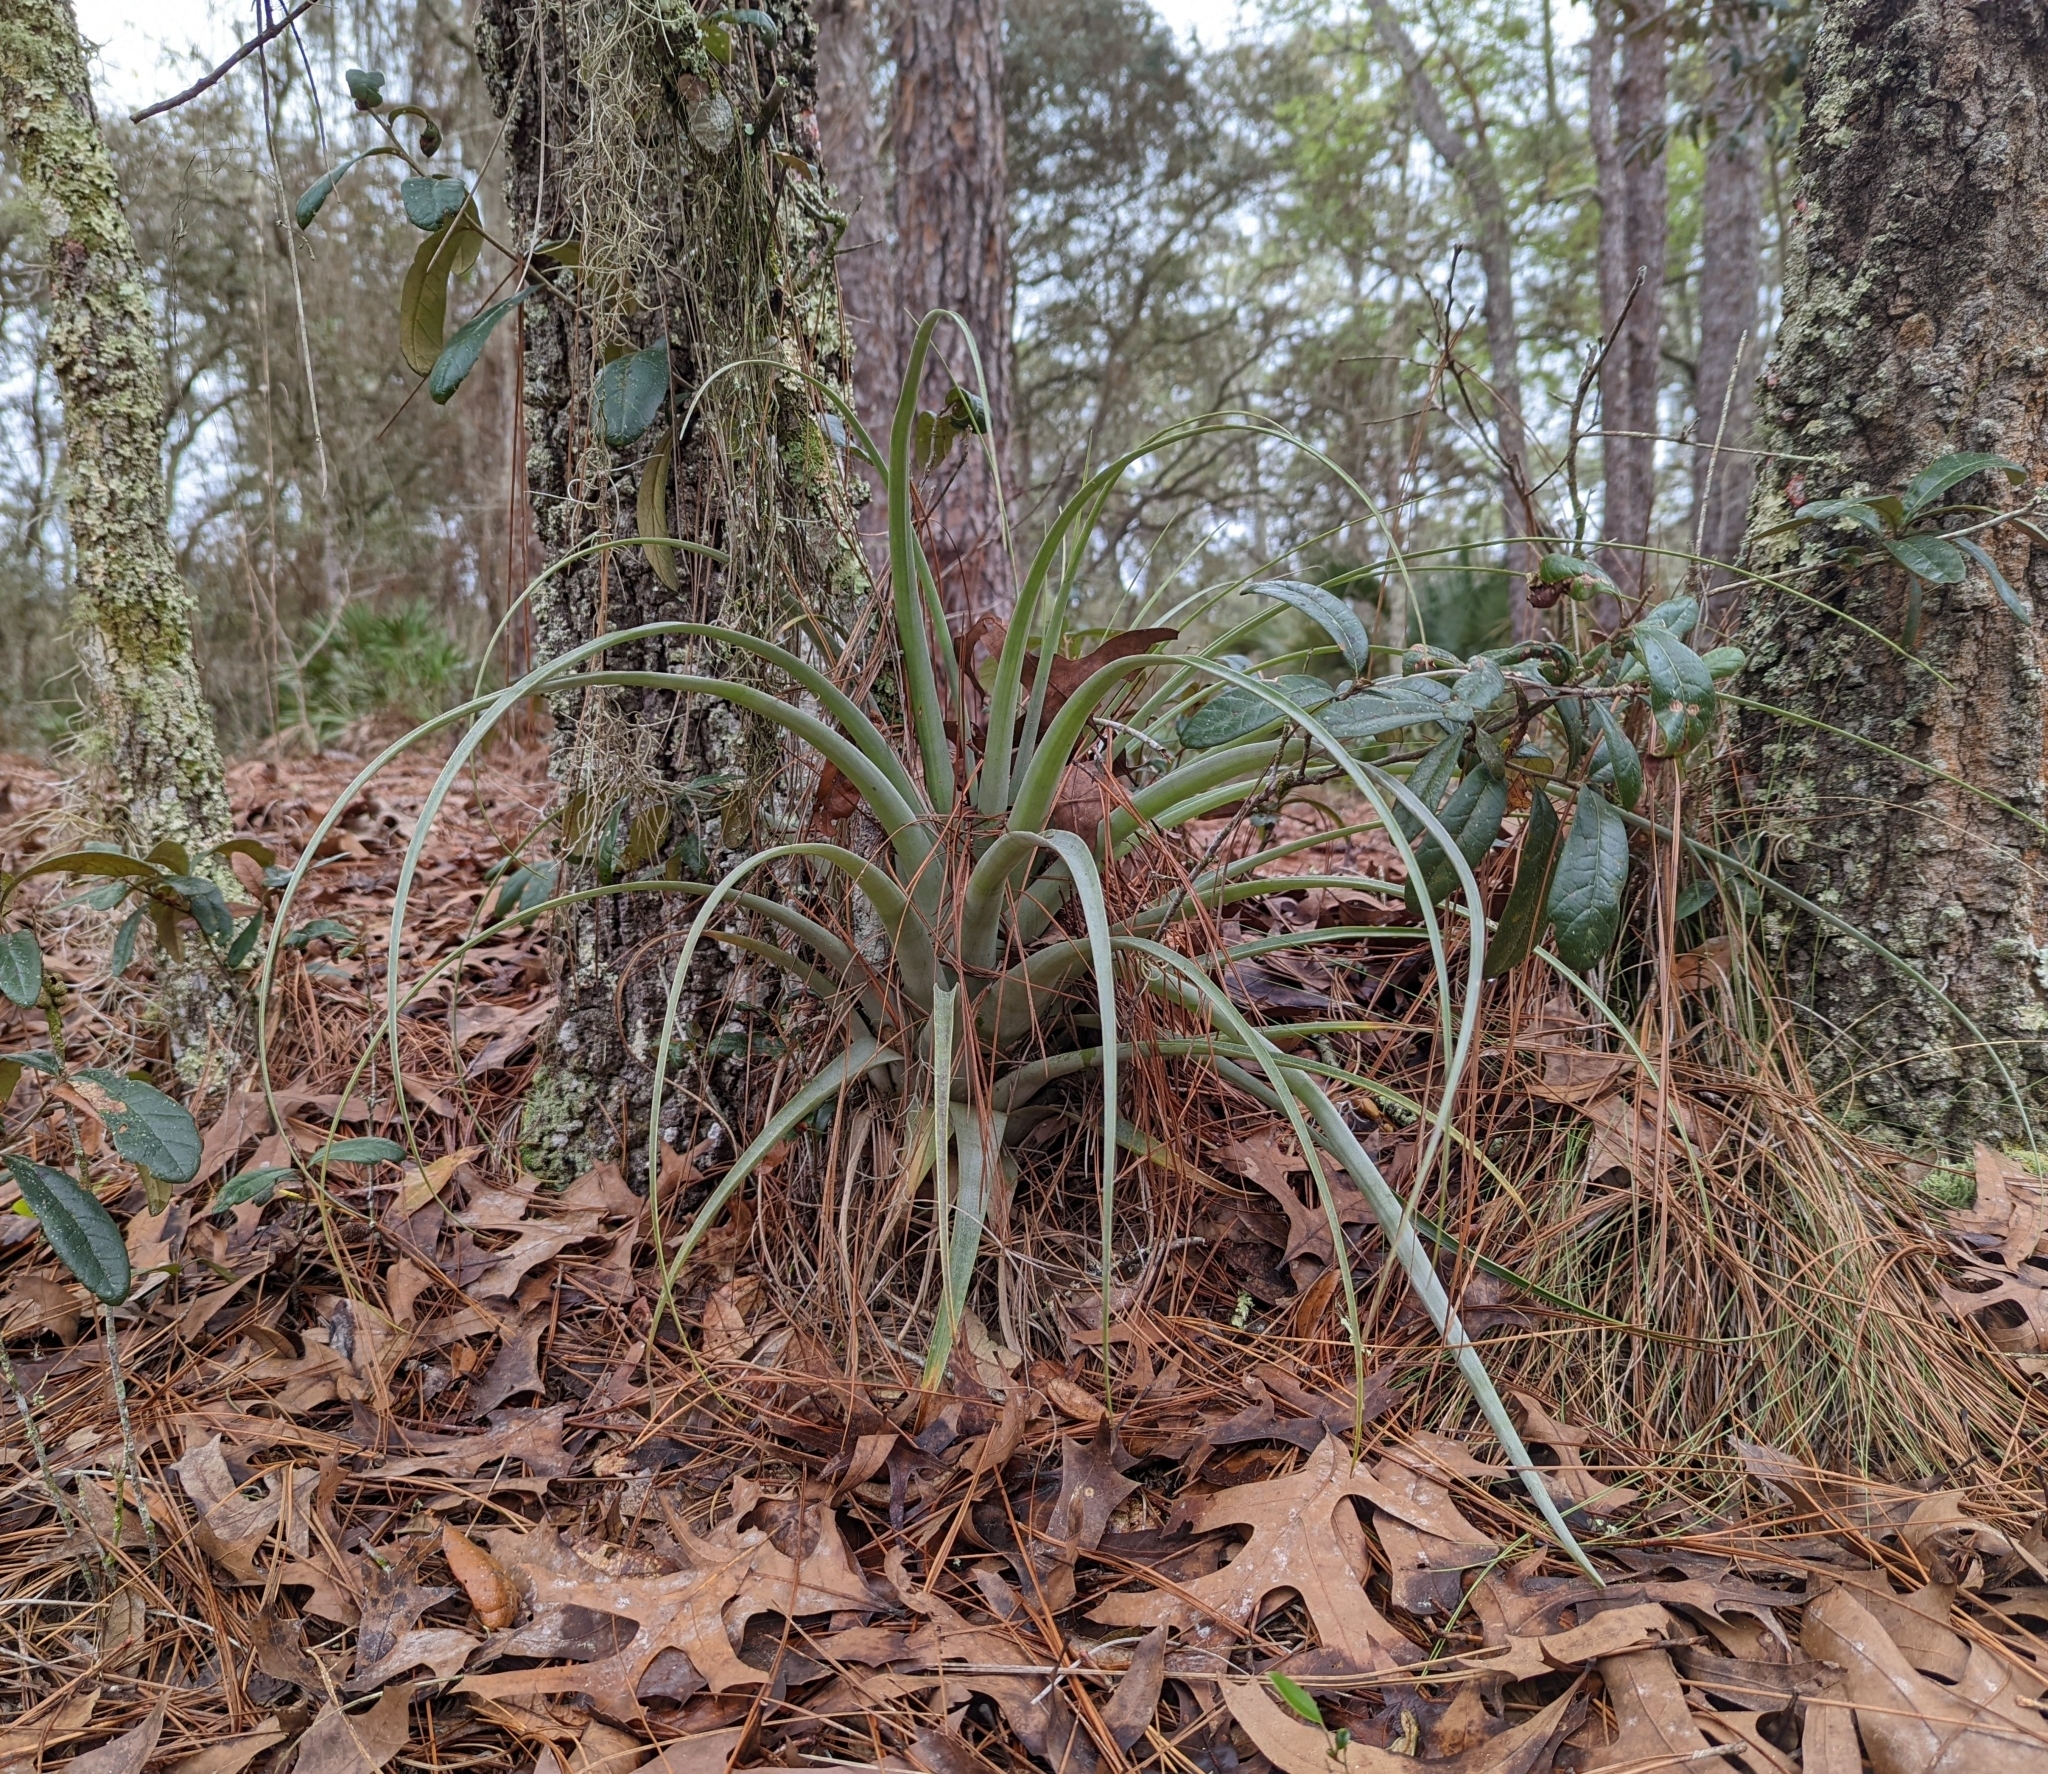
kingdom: Plantae
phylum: Tracheophyta
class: Liliopsida
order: Poales
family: Bromeliaceae
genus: Tillandsia
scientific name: Tillandsia utriculata
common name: Wild pine
